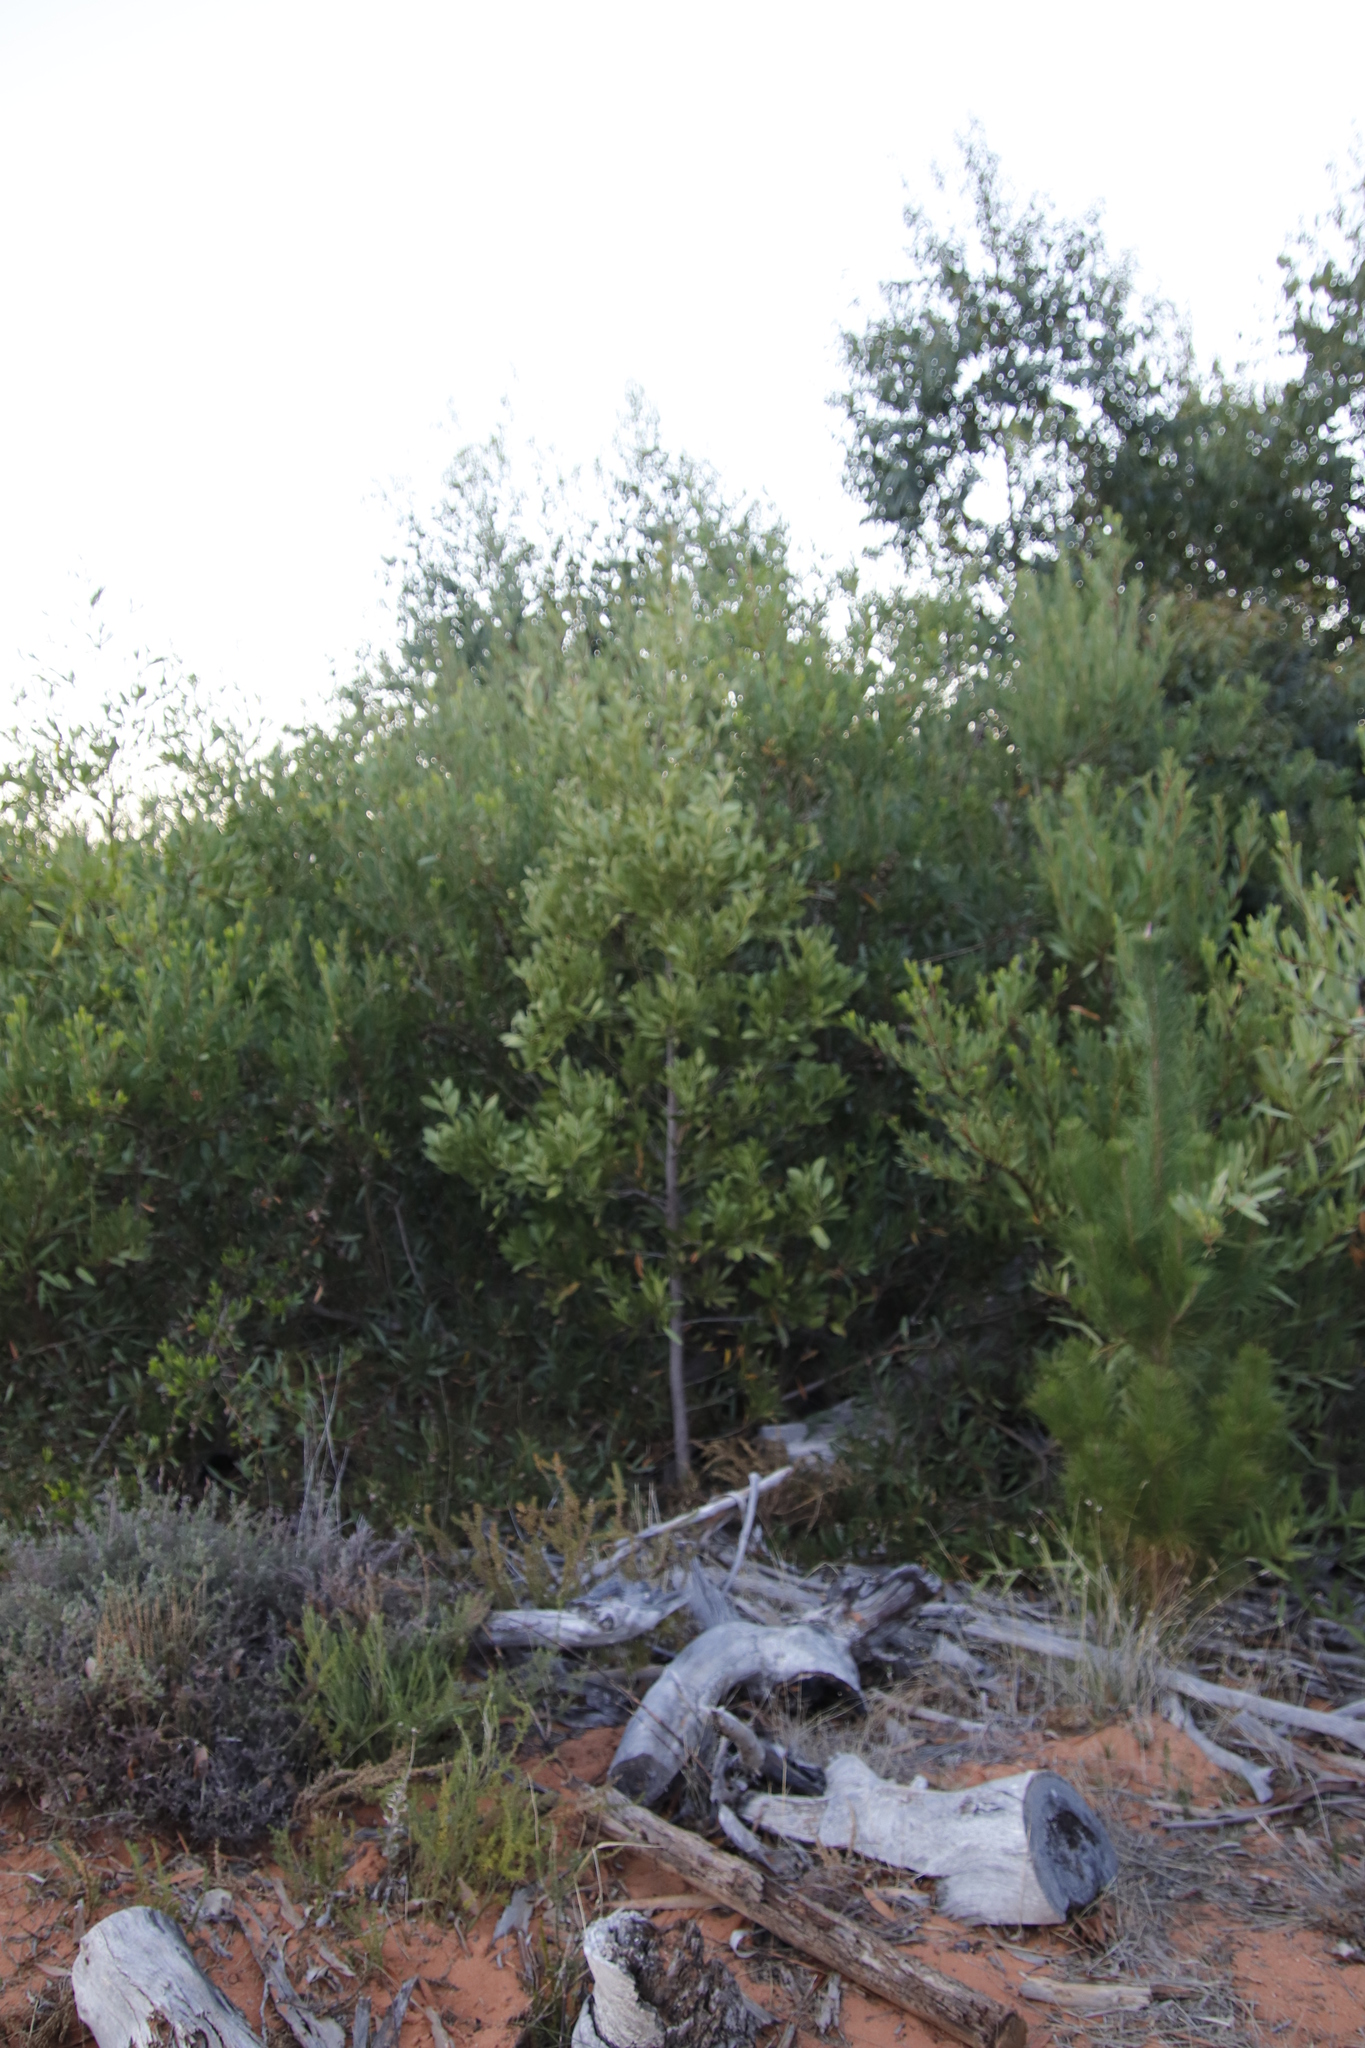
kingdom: Plantae
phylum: Tracheophyta
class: Magnoliopsida
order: Fabales
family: Fabaceae
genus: Acacia
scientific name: Acacia melanoxylon
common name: Blackwood
